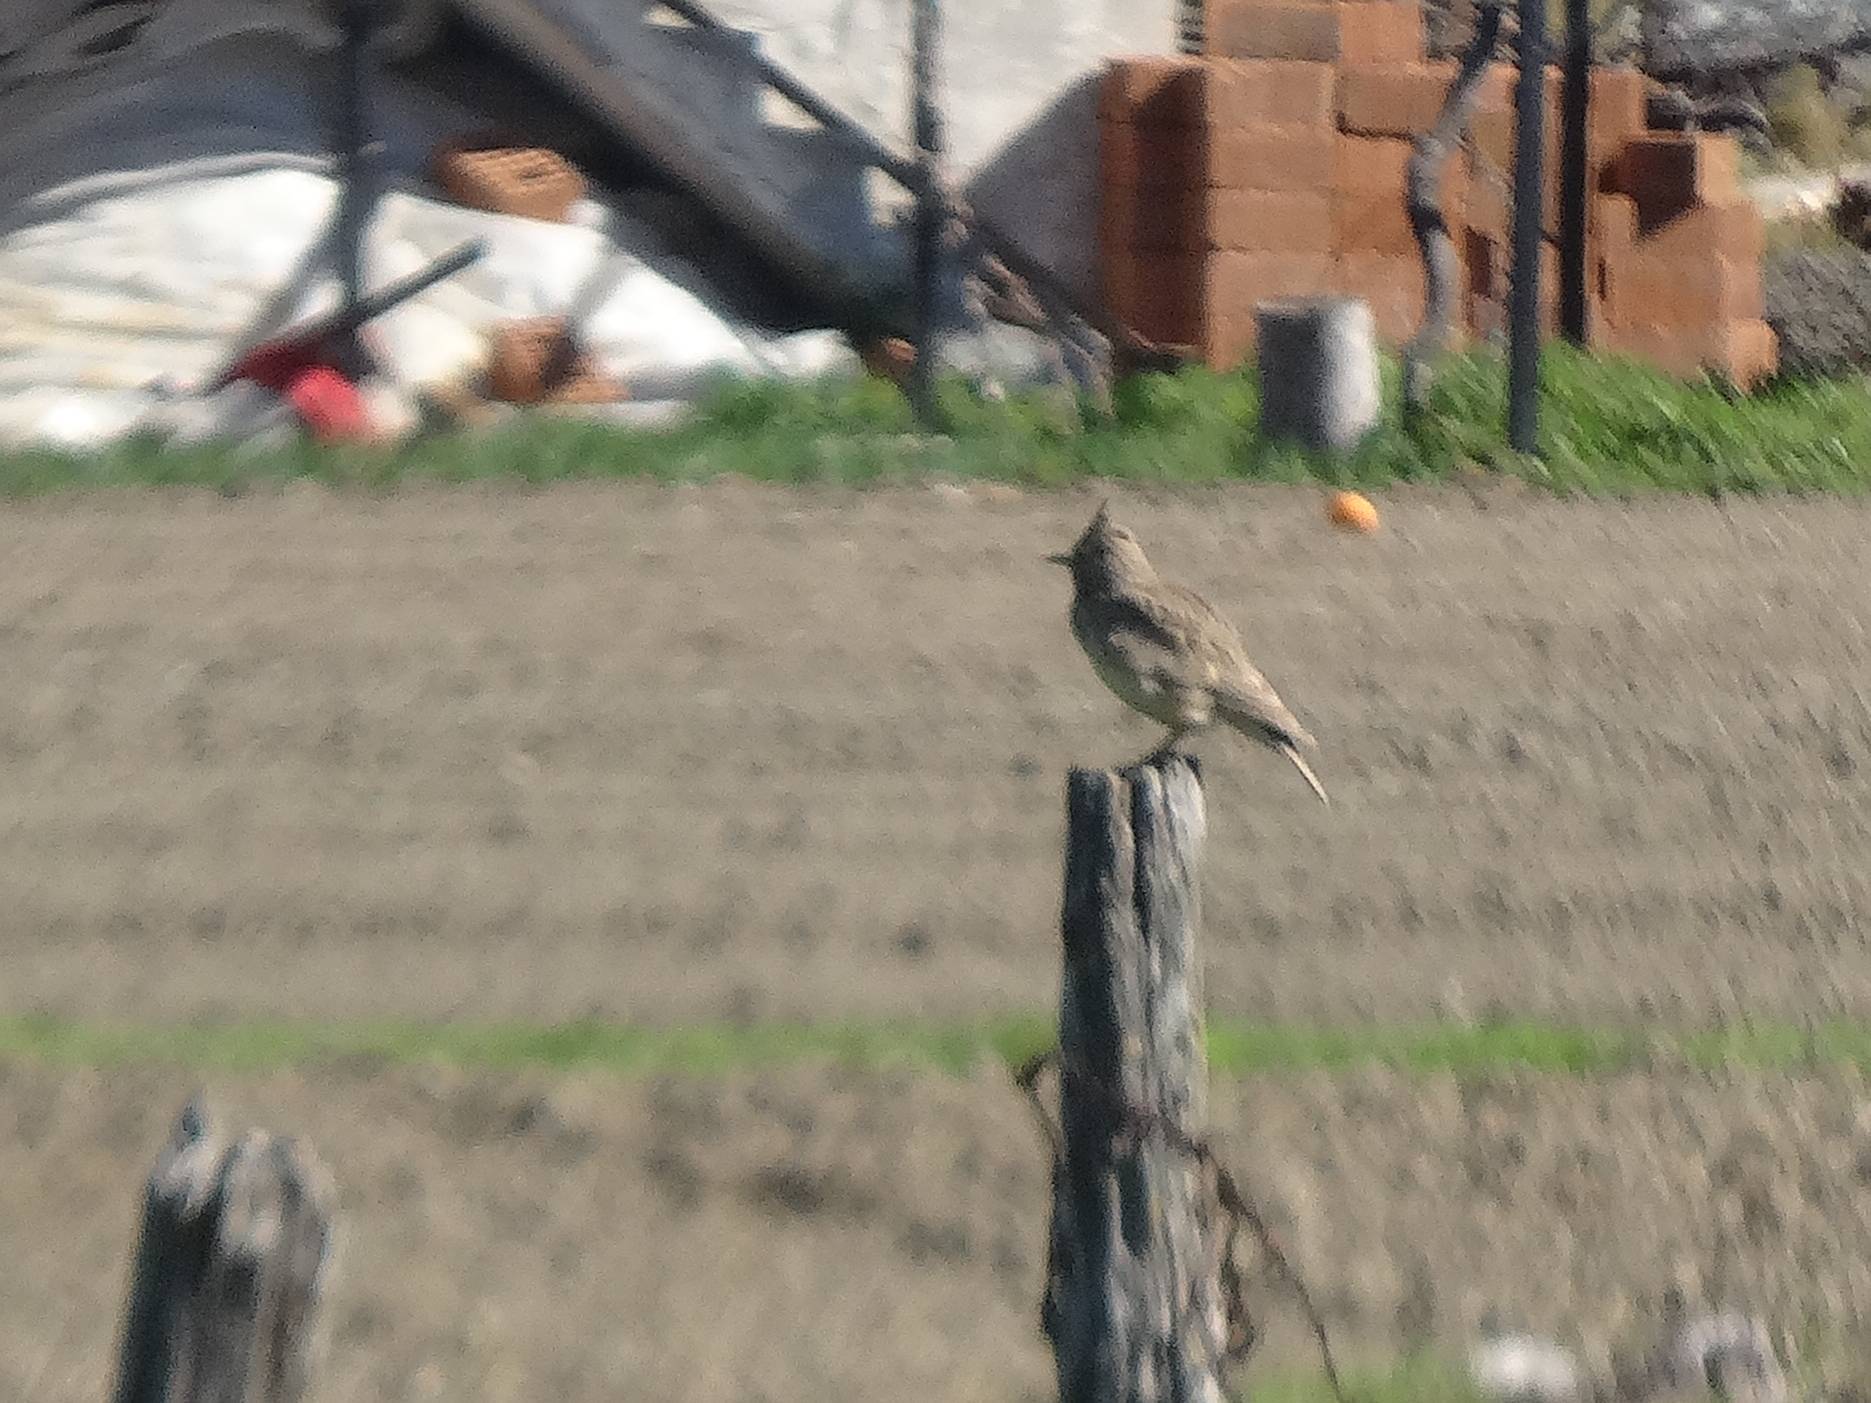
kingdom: Animalia
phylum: Chordata
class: Aves
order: Passeriformes
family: Alaudidae
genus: Galerida
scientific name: Galerida cristata
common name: Crested lark
